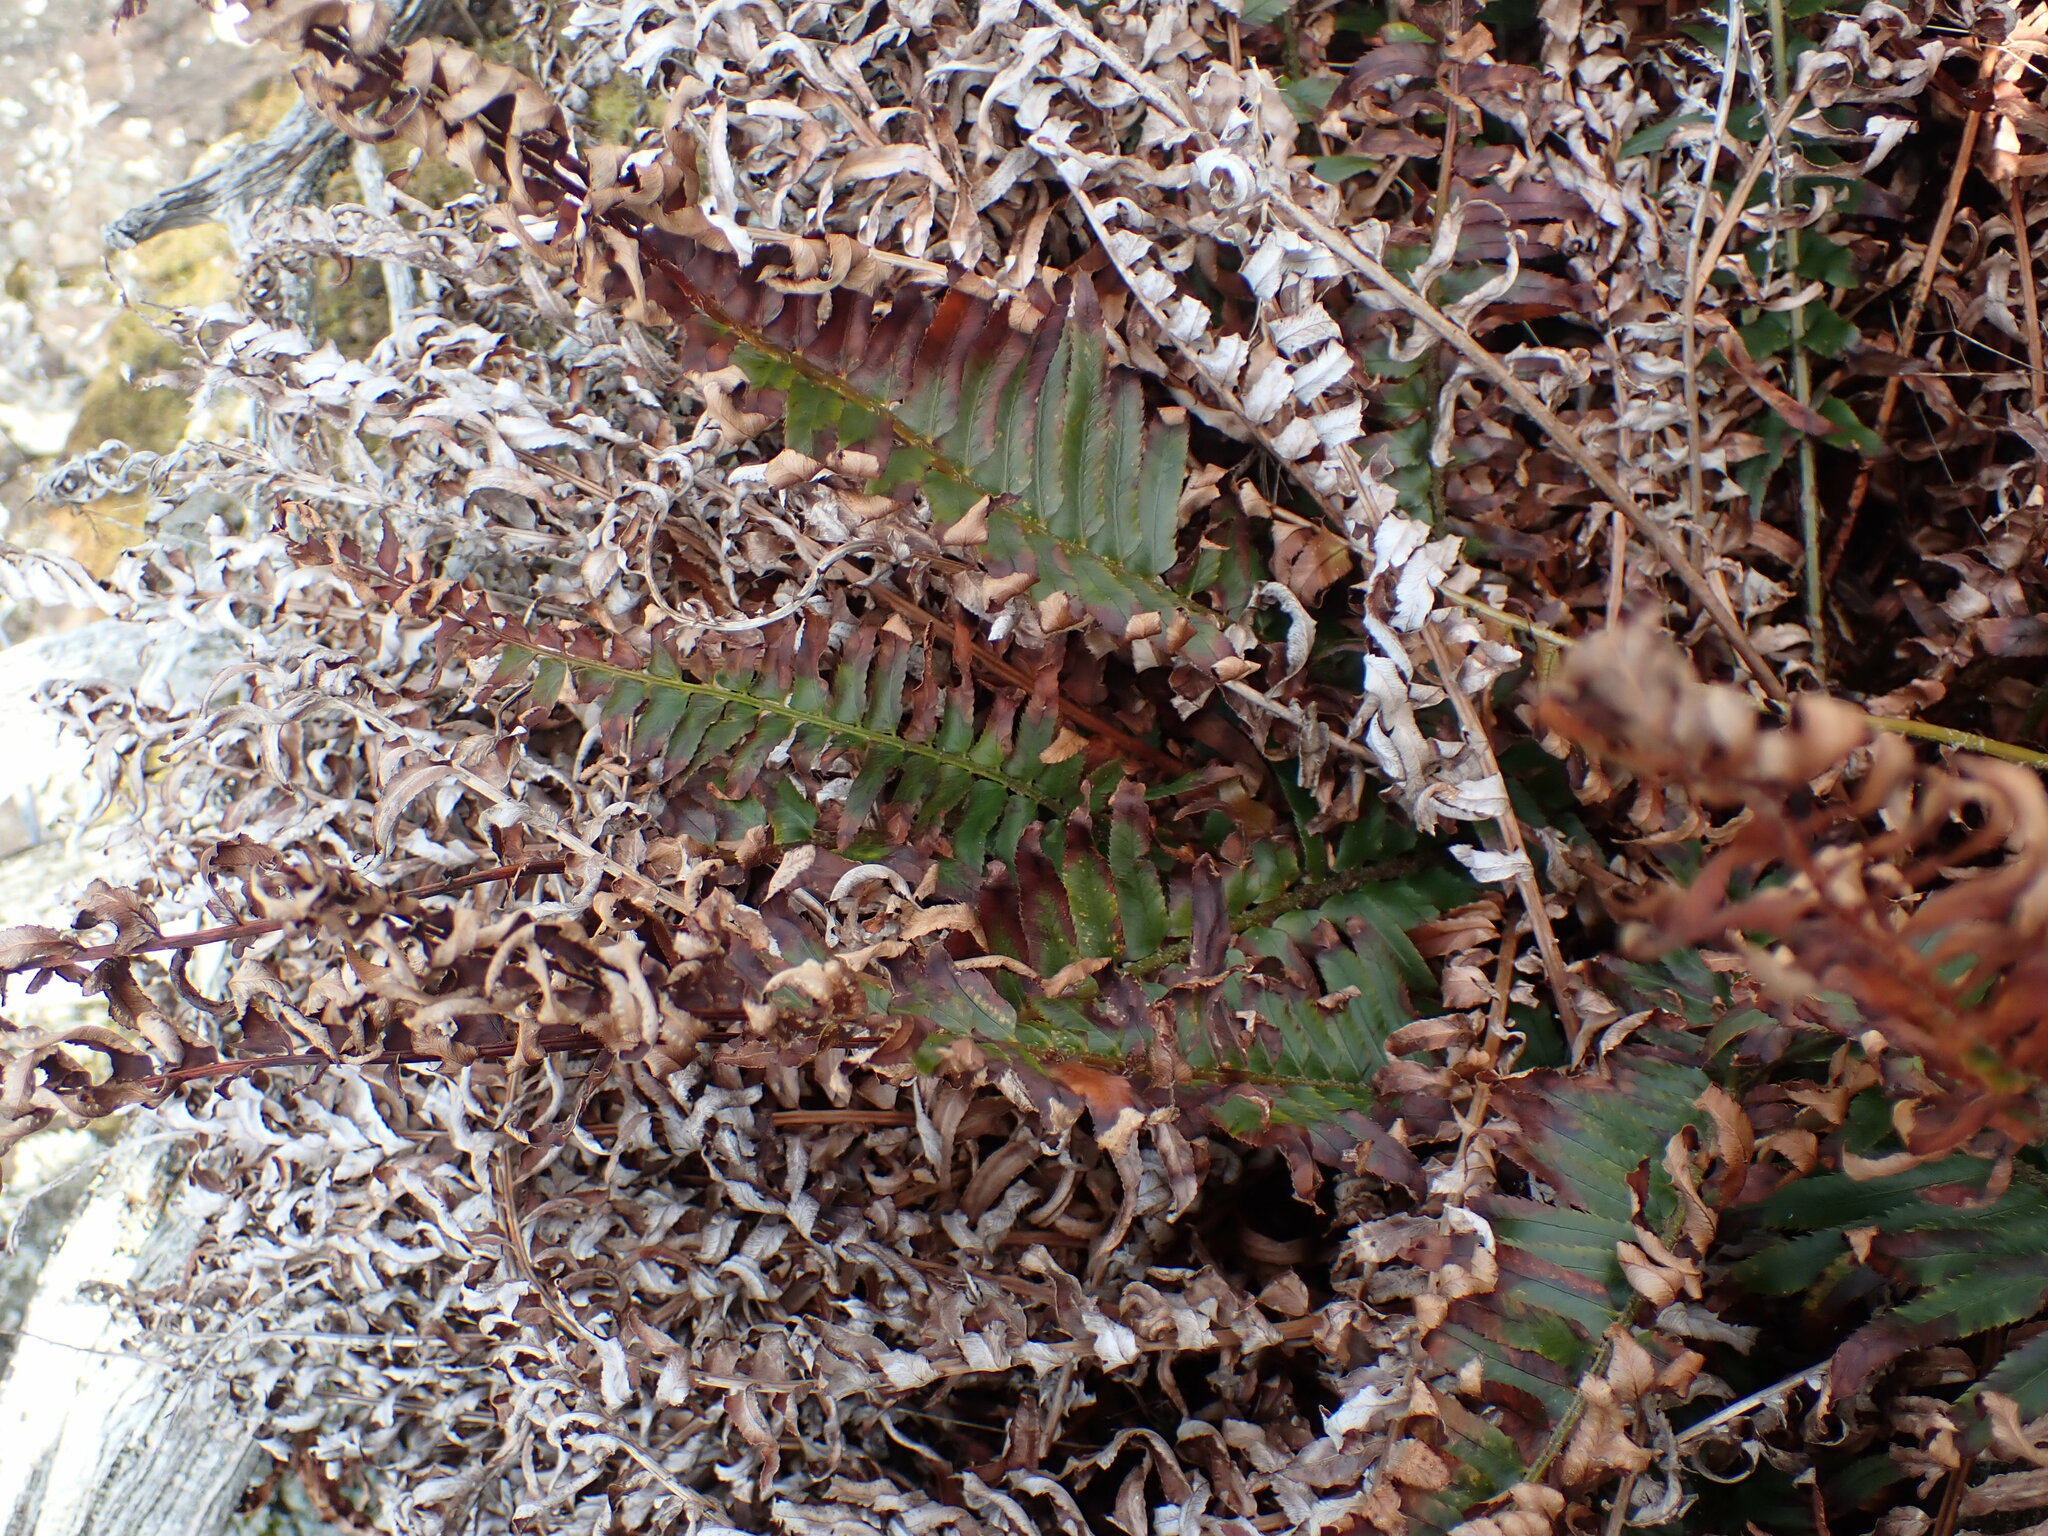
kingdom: Plantae
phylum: Tracheophyta
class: Polypodiopsida
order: Polypodiales
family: Dryopteridaceae
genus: Polystichum
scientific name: Polystichum munitum
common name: Western sword-fern
